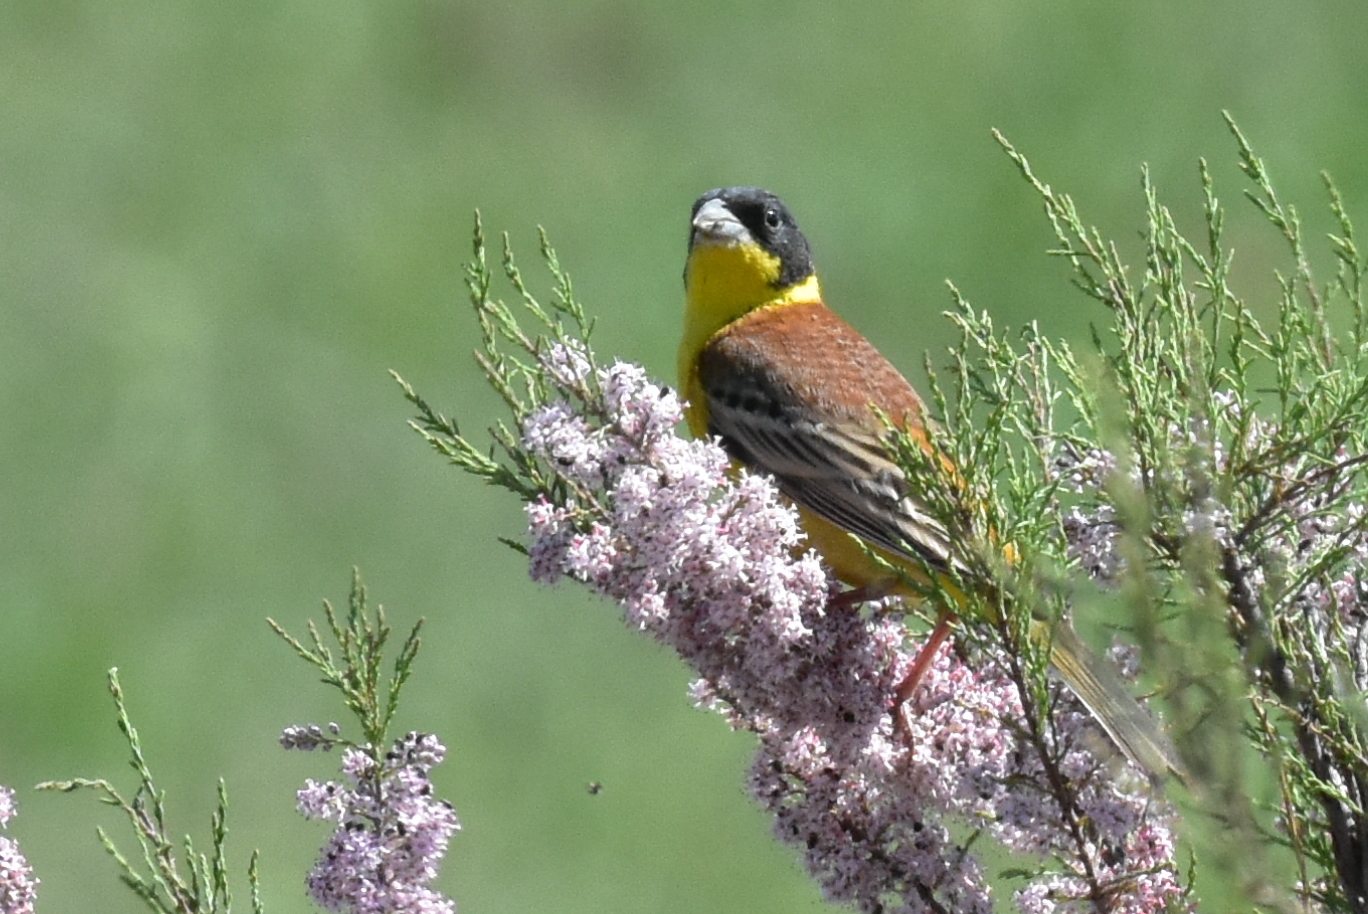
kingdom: Animalia
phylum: Chordata
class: Aves
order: Passeriformes
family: Emberizidae
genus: Emberiza
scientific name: Emberiza melanocephala
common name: Black-headed bunting
